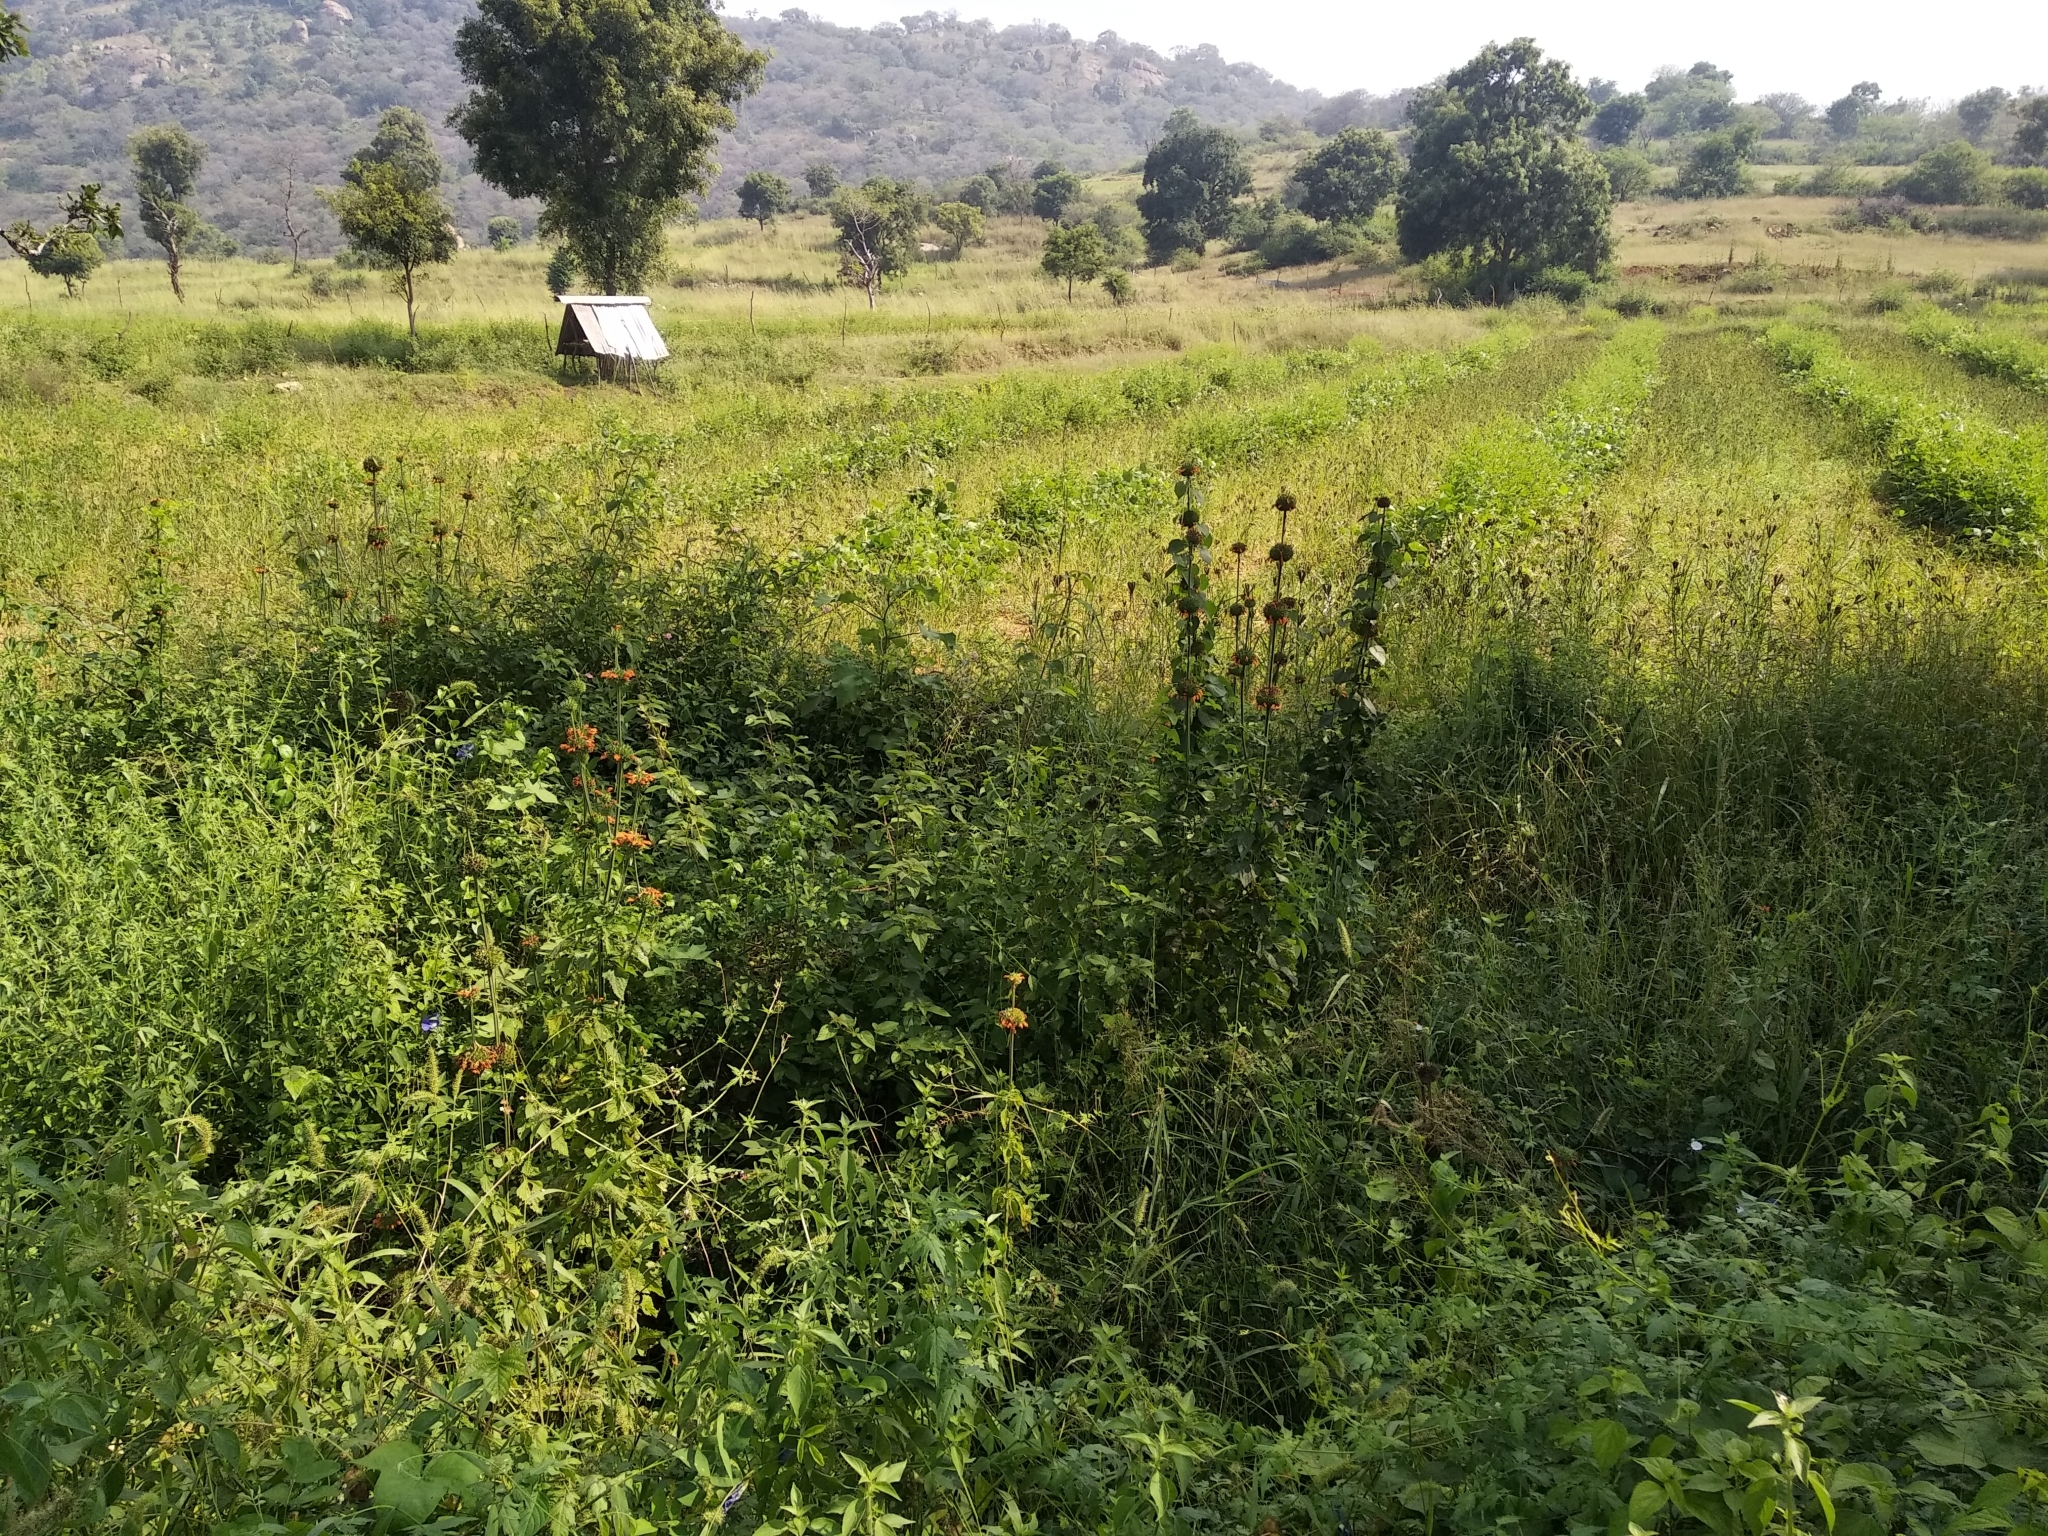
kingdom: Plantae
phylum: Tracheophyta
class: Magnoliopsida
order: Lamiales
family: Lamiaceae
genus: Leonotis
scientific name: Leonotis nepetifolia
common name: Christmas candlestick
